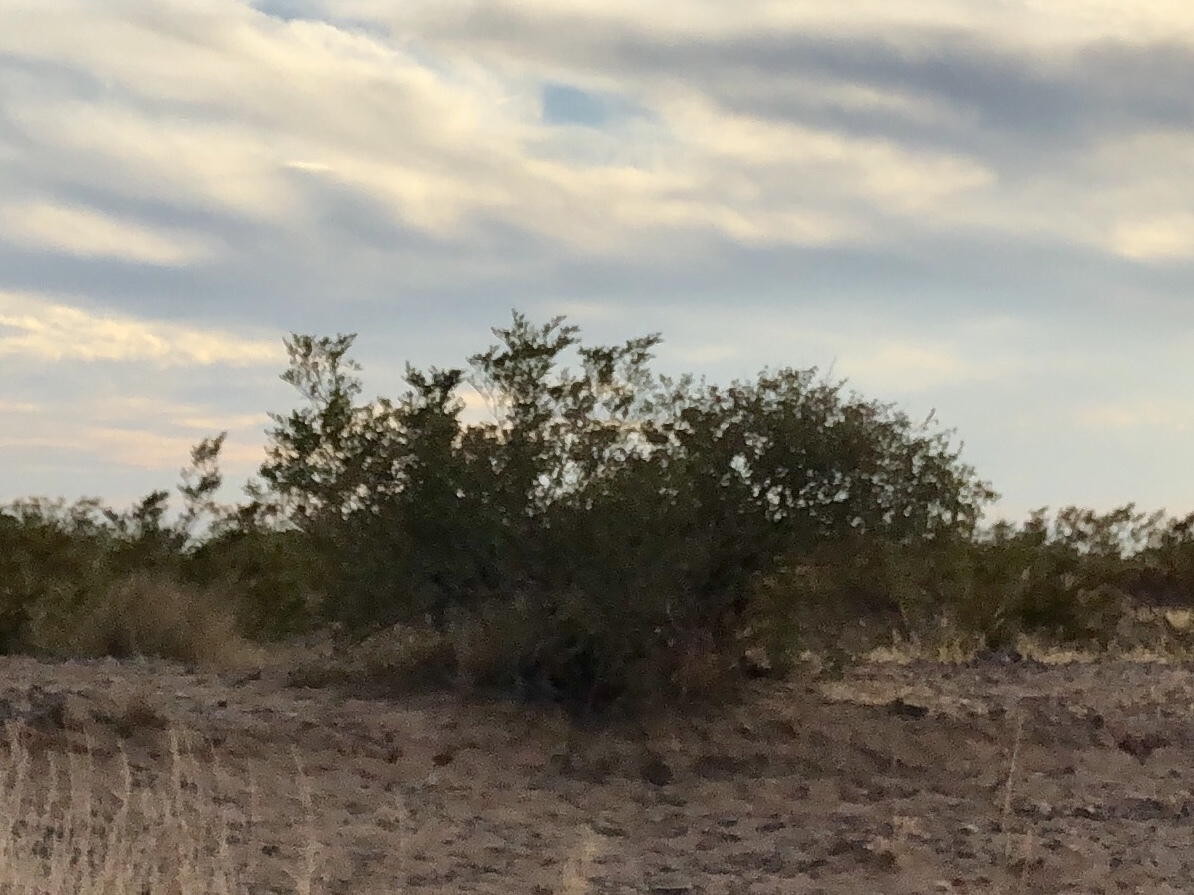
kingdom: Plantae
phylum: Tracheophyta
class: Magnoliopsida
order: Zygophyllales
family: Zygophyllaceae
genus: Larrea
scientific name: Larrea tridentata
